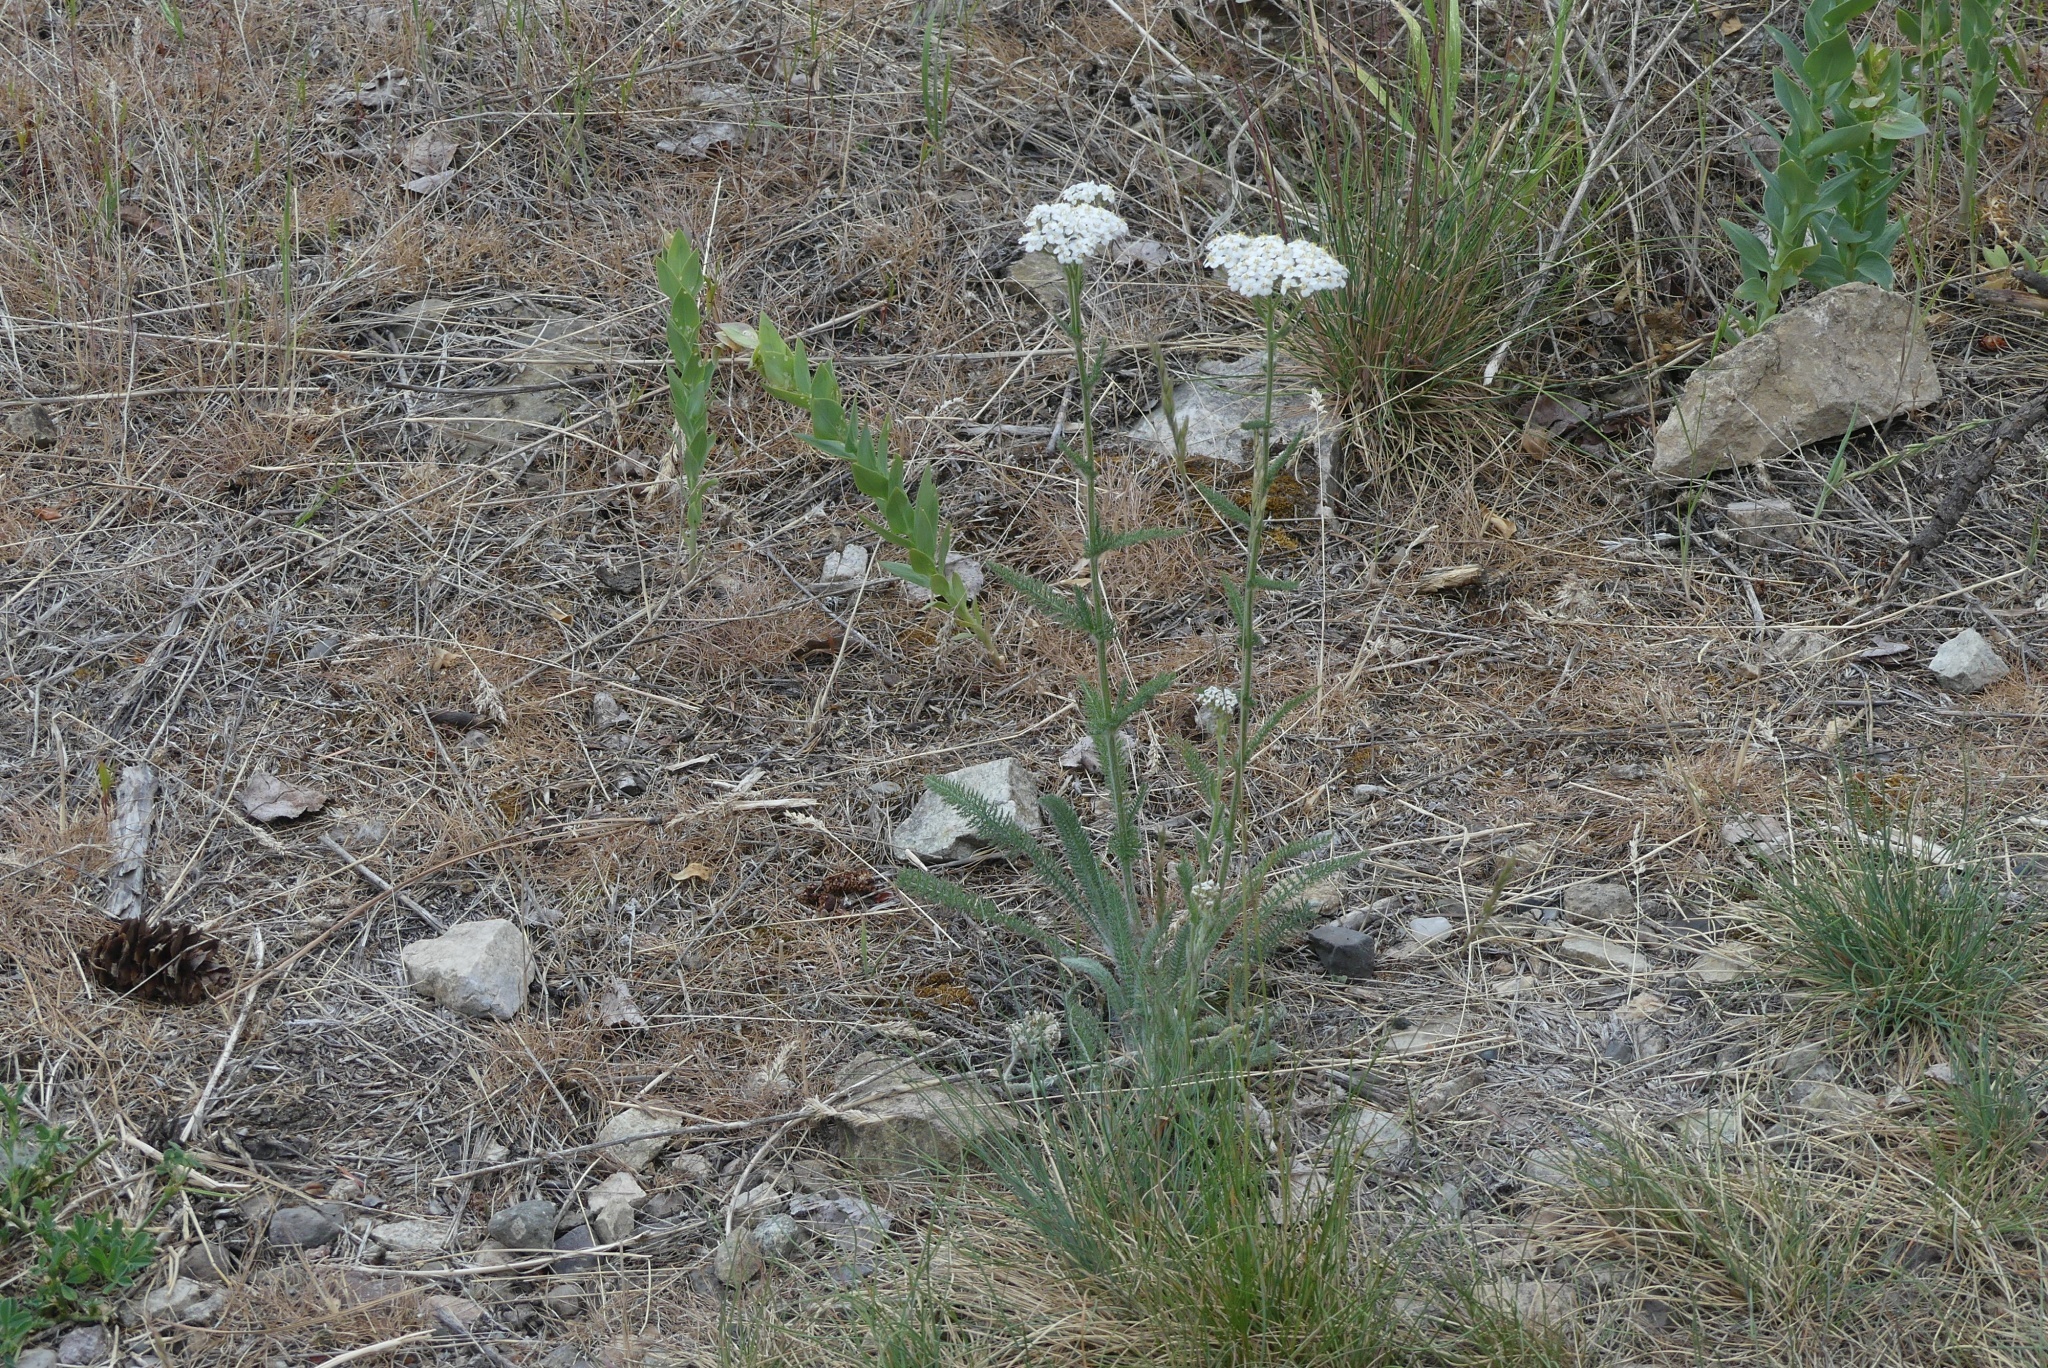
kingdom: Plantae
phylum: Tracheophyta
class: Magnoliopsida
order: Asterales
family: Asteraceae
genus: Achillea
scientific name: Achillea millefolium
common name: Yarrow
